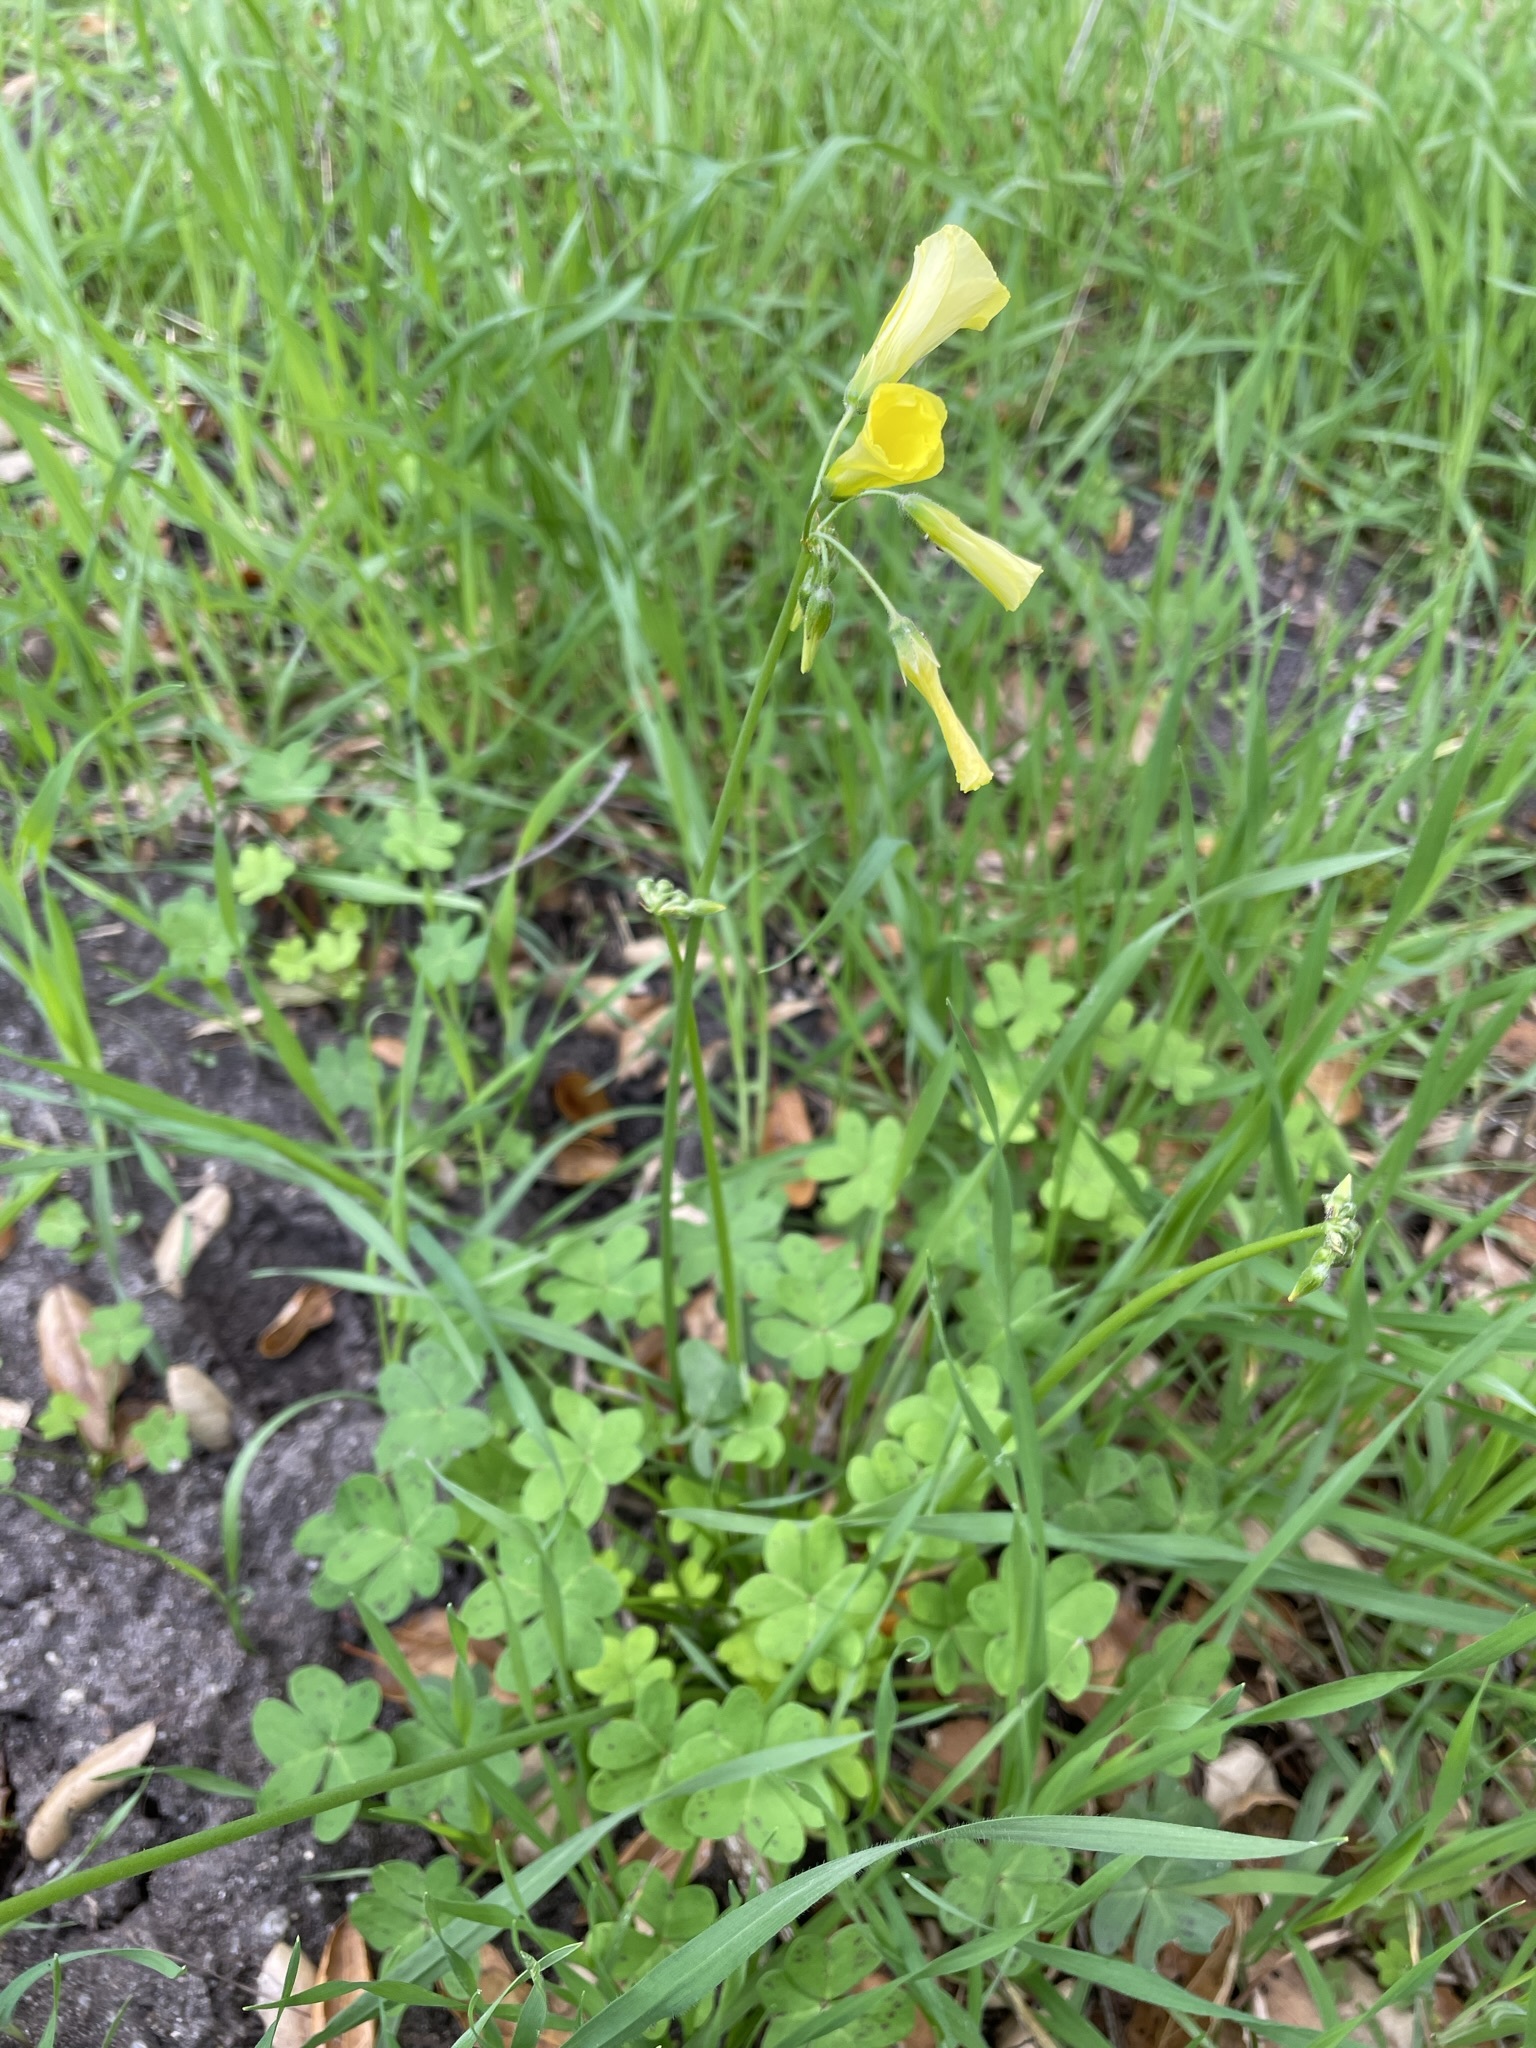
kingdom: Plantae
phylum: Tracheophyta
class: Magnoliopsida
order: Oxalidales
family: Oxalidaceae
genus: Oxalis
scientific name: Oxalis pes-caprae
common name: Bermuda-buttercup
